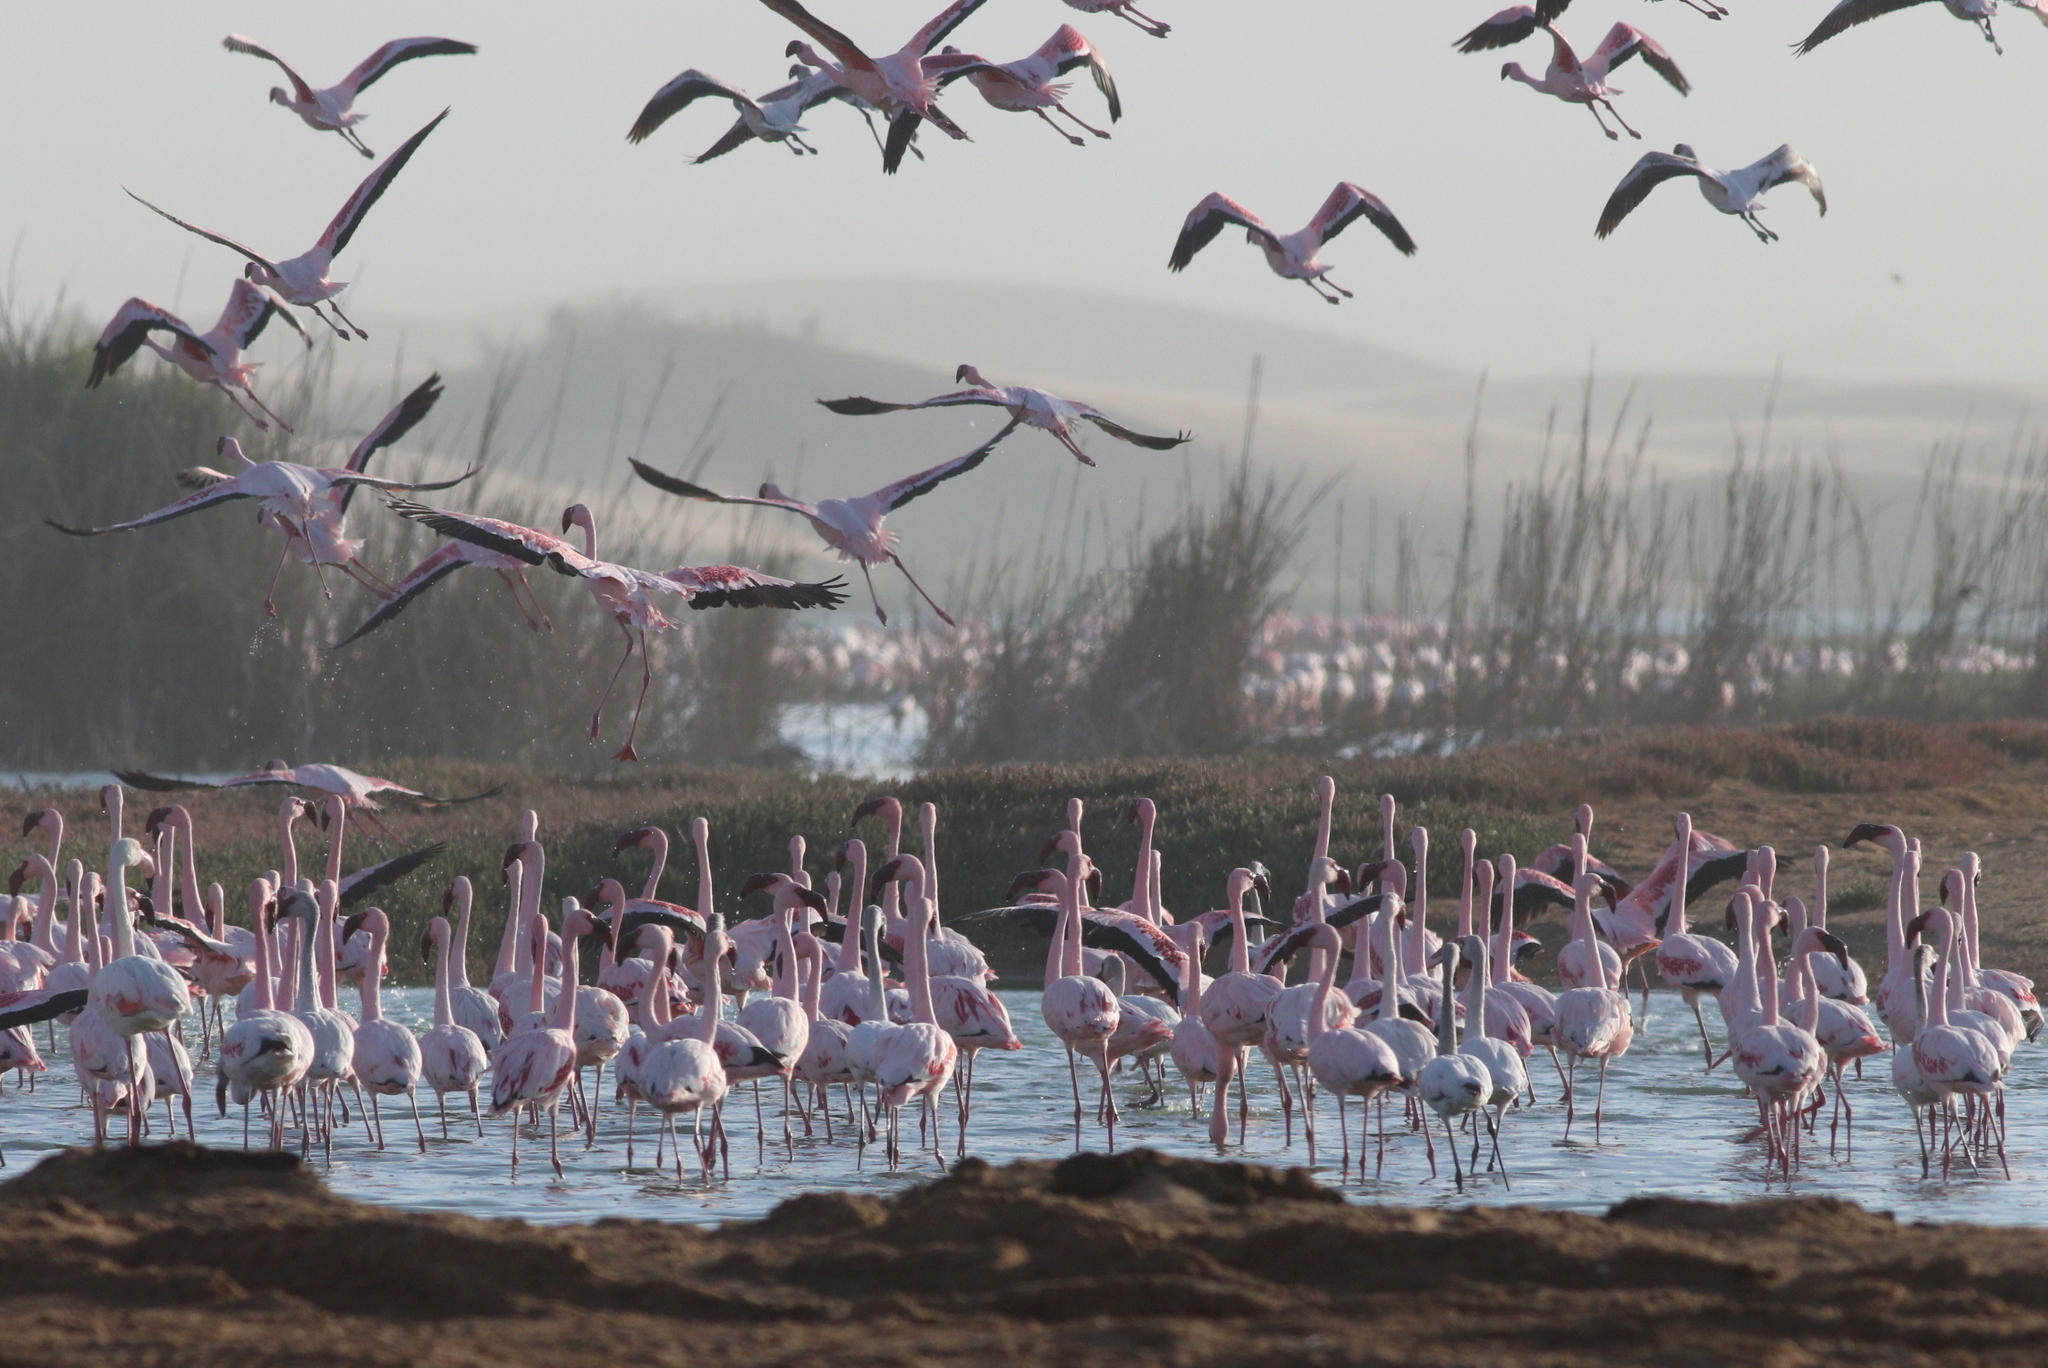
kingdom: Animalia
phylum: Chordata
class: Aves
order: Phoenicopteriformes
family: Phoenicopteridae
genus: Phoeniconaias
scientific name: Phoeniconaias minor
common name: Lesser flamingo
